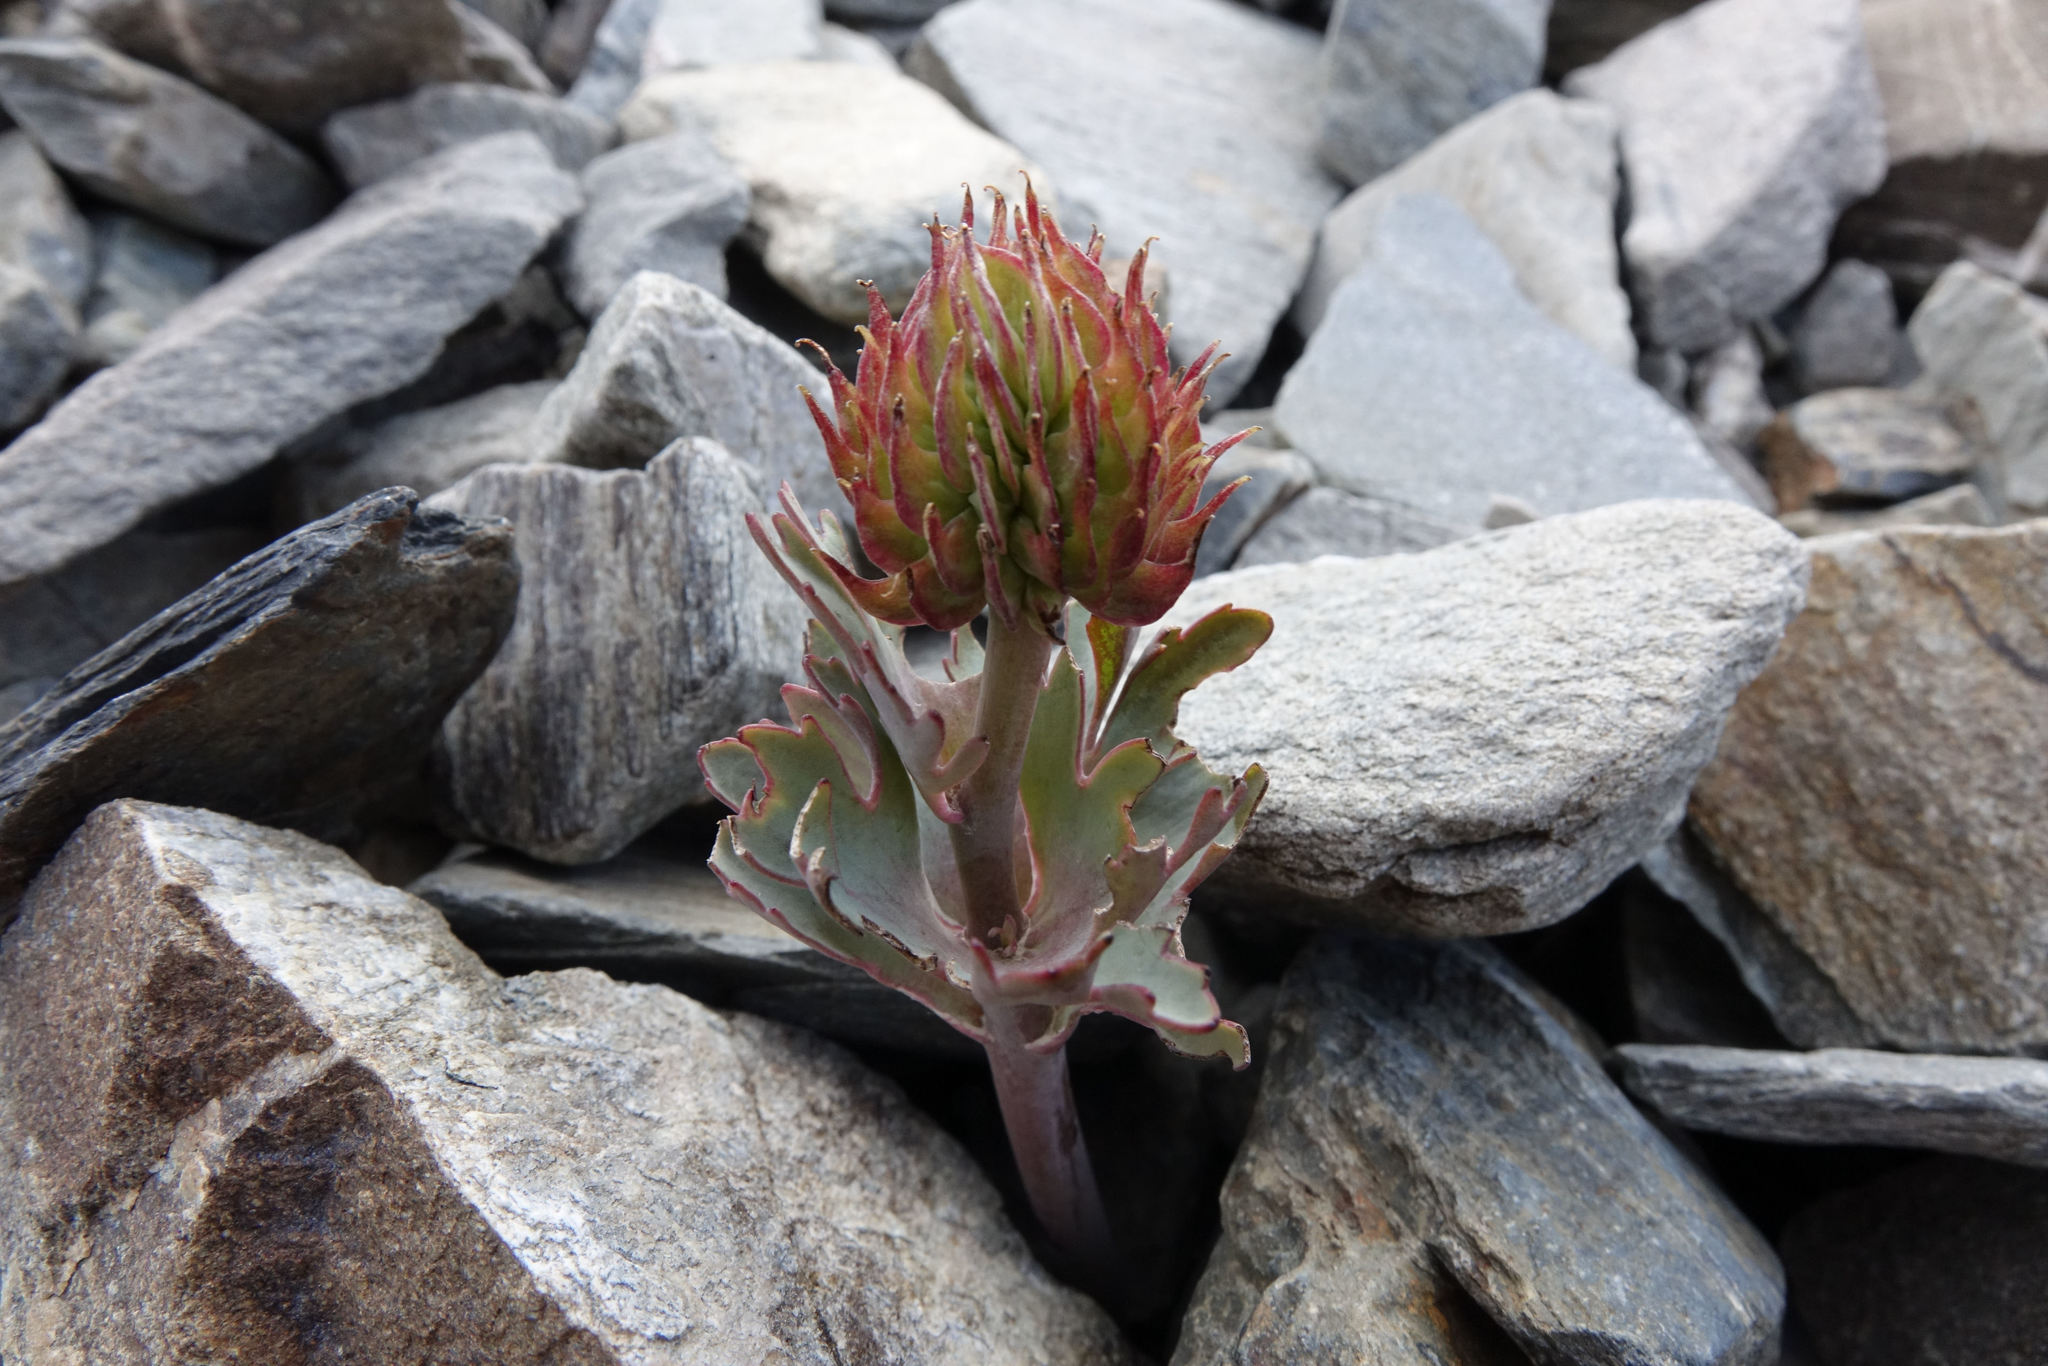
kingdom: Plantae
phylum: Tracheophyta
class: Magnoliopsida
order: Ranunculales
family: Ranunculaceae
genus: Ranunculus
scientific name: Ranunculus acraeus
